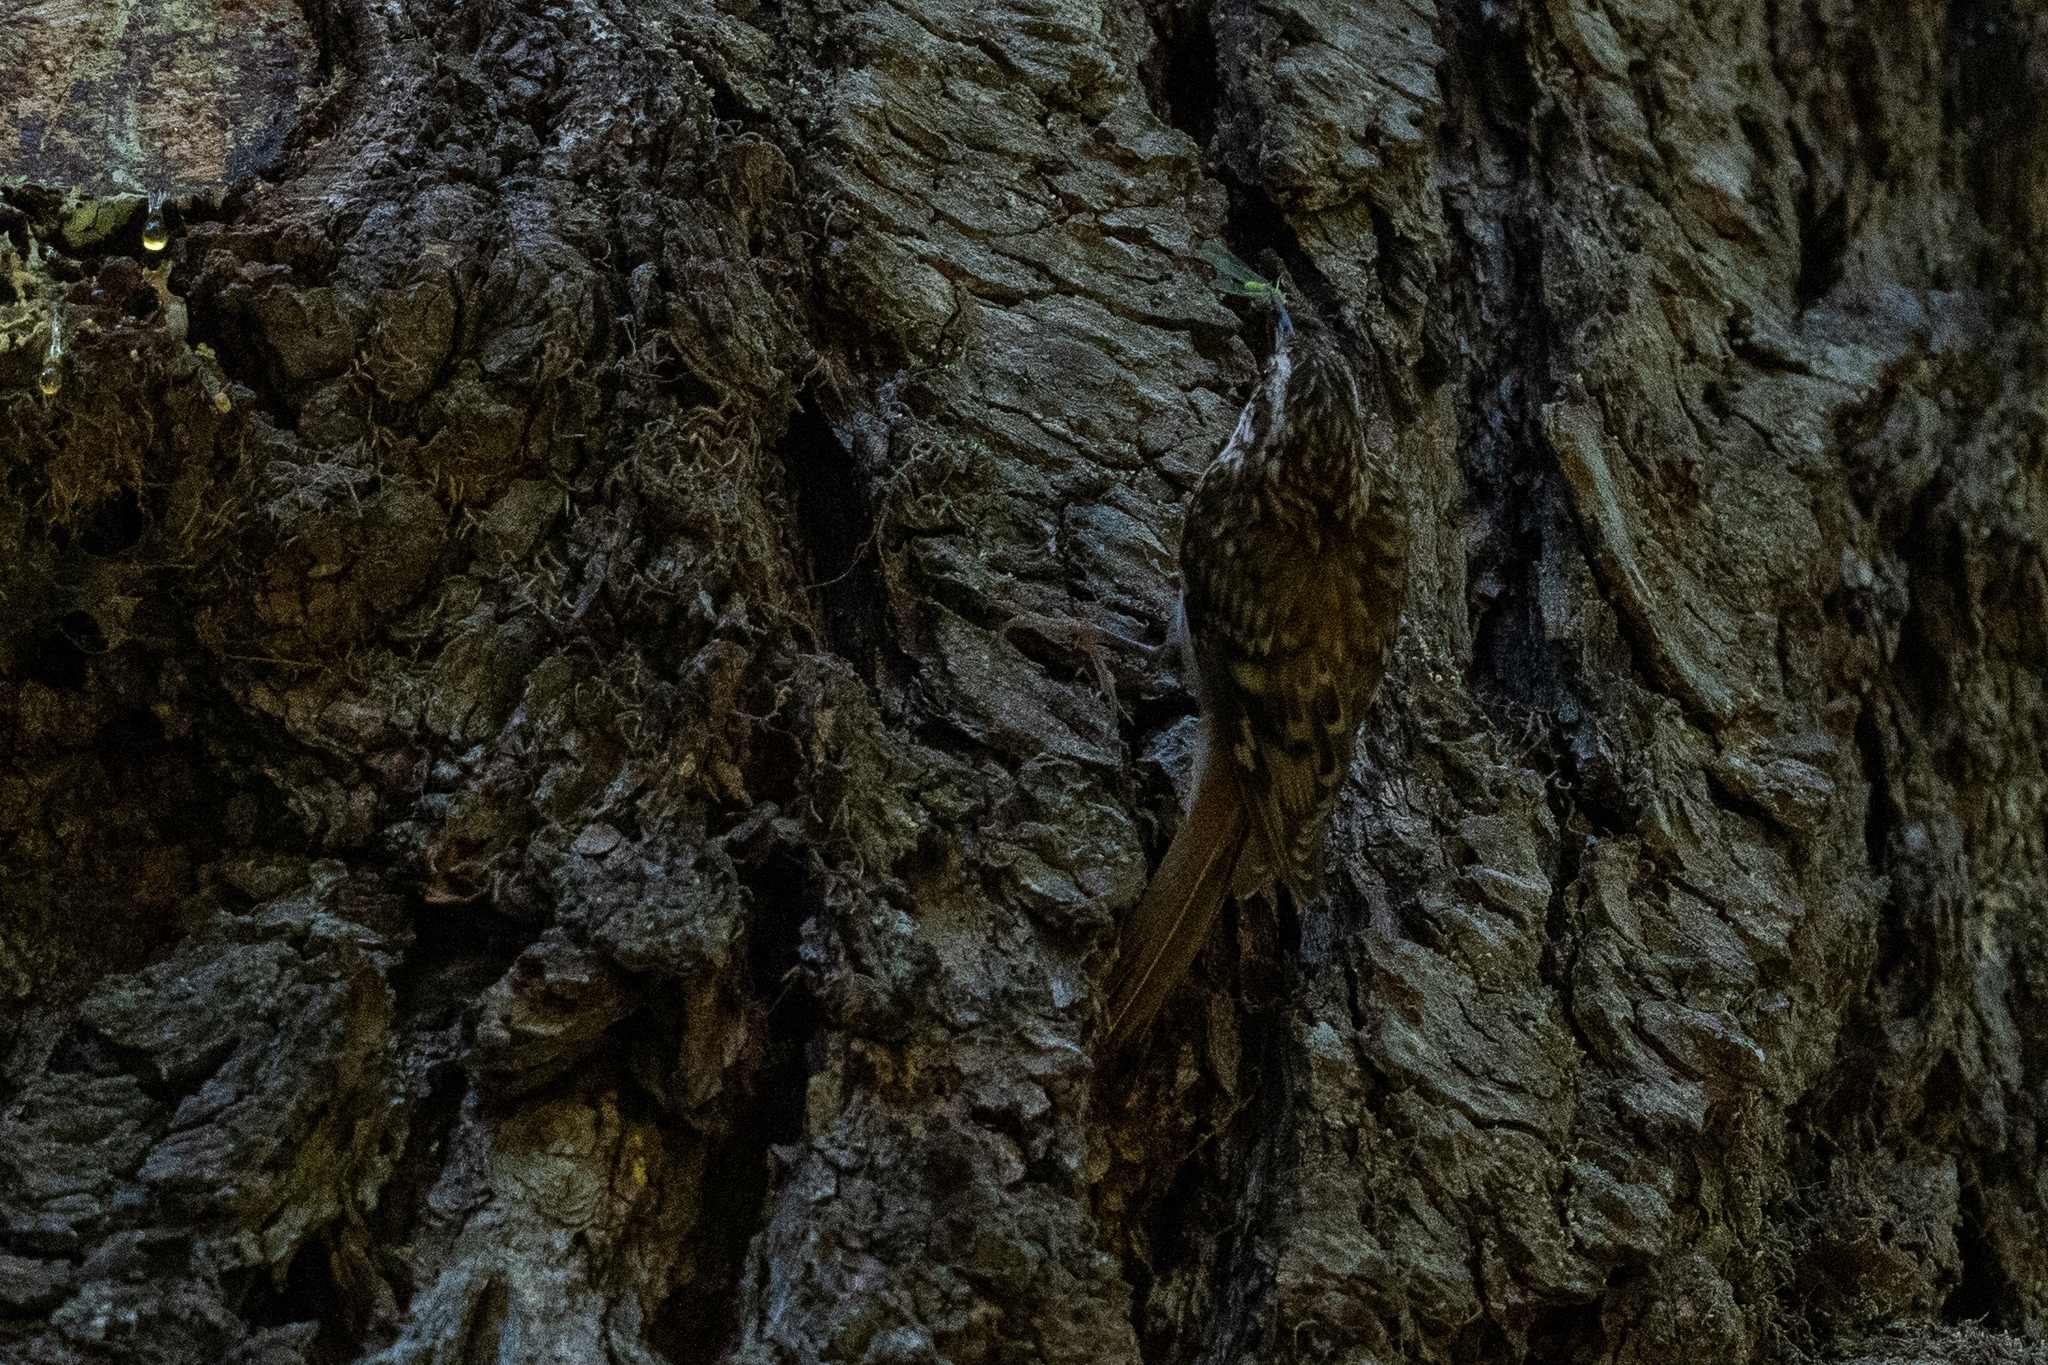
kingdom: Animalia
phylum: Chordata
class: Aves
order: Passeriformes
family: Certhiidae
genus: Certhia
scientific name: Certhia americana
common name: Brown creeper
